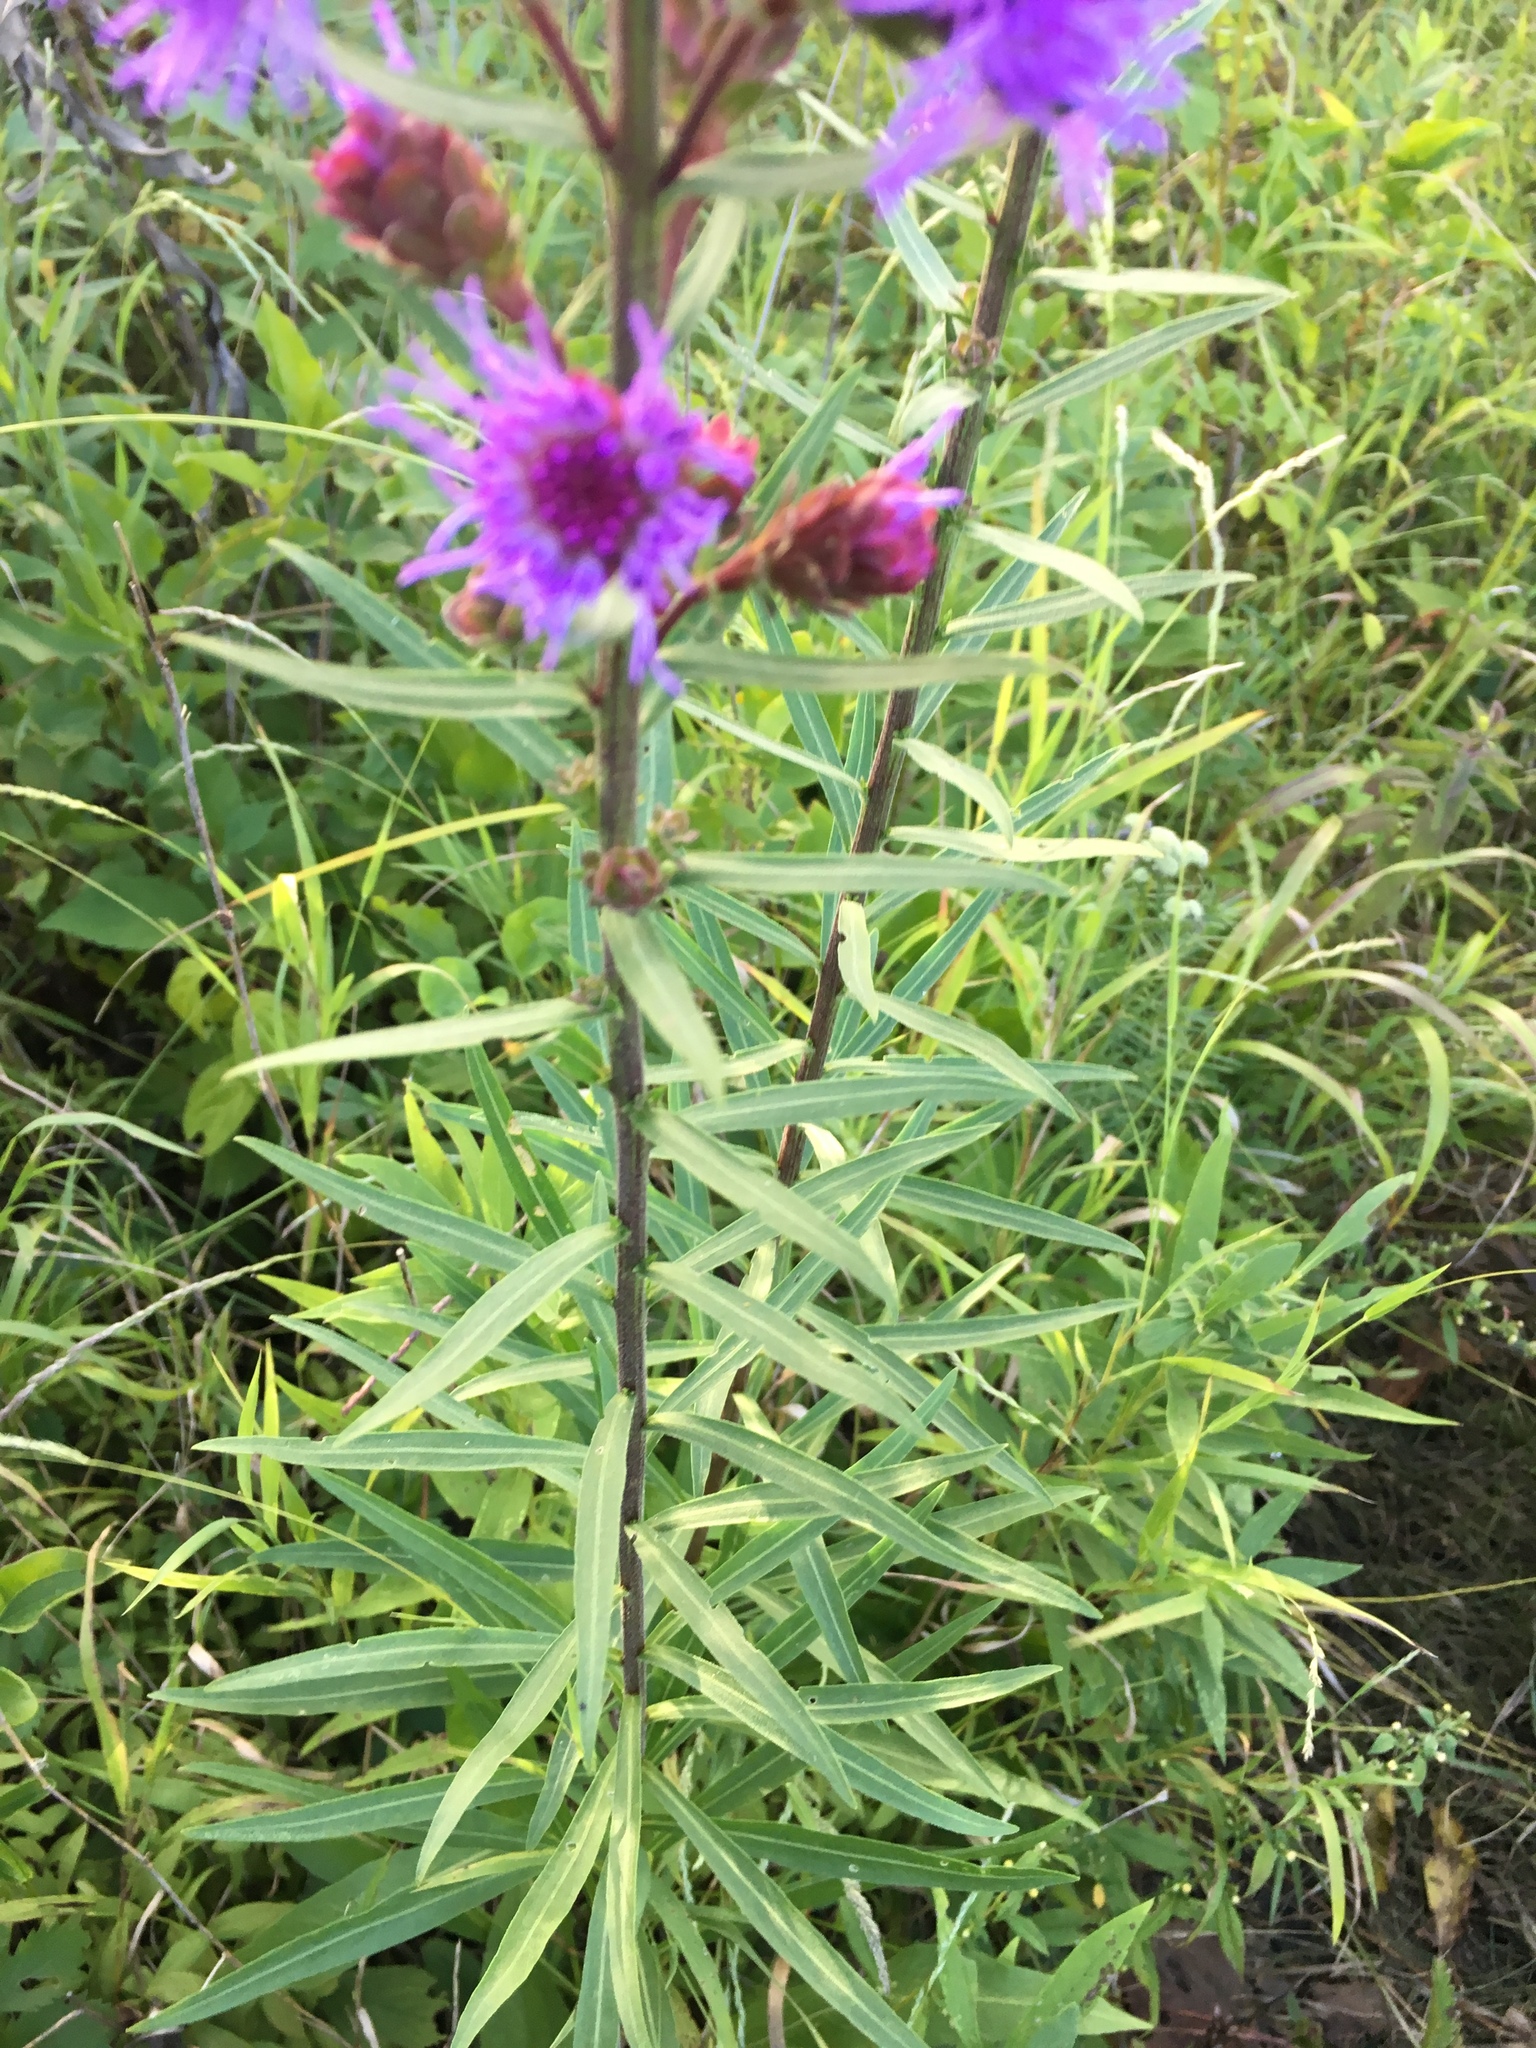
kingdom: Plantae
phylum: Tracheophyta
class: Magnoliopsida
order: Asterales
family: Asteraceae
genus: Liatris
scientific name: Liatris scariosa
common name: Northern gayfeather
